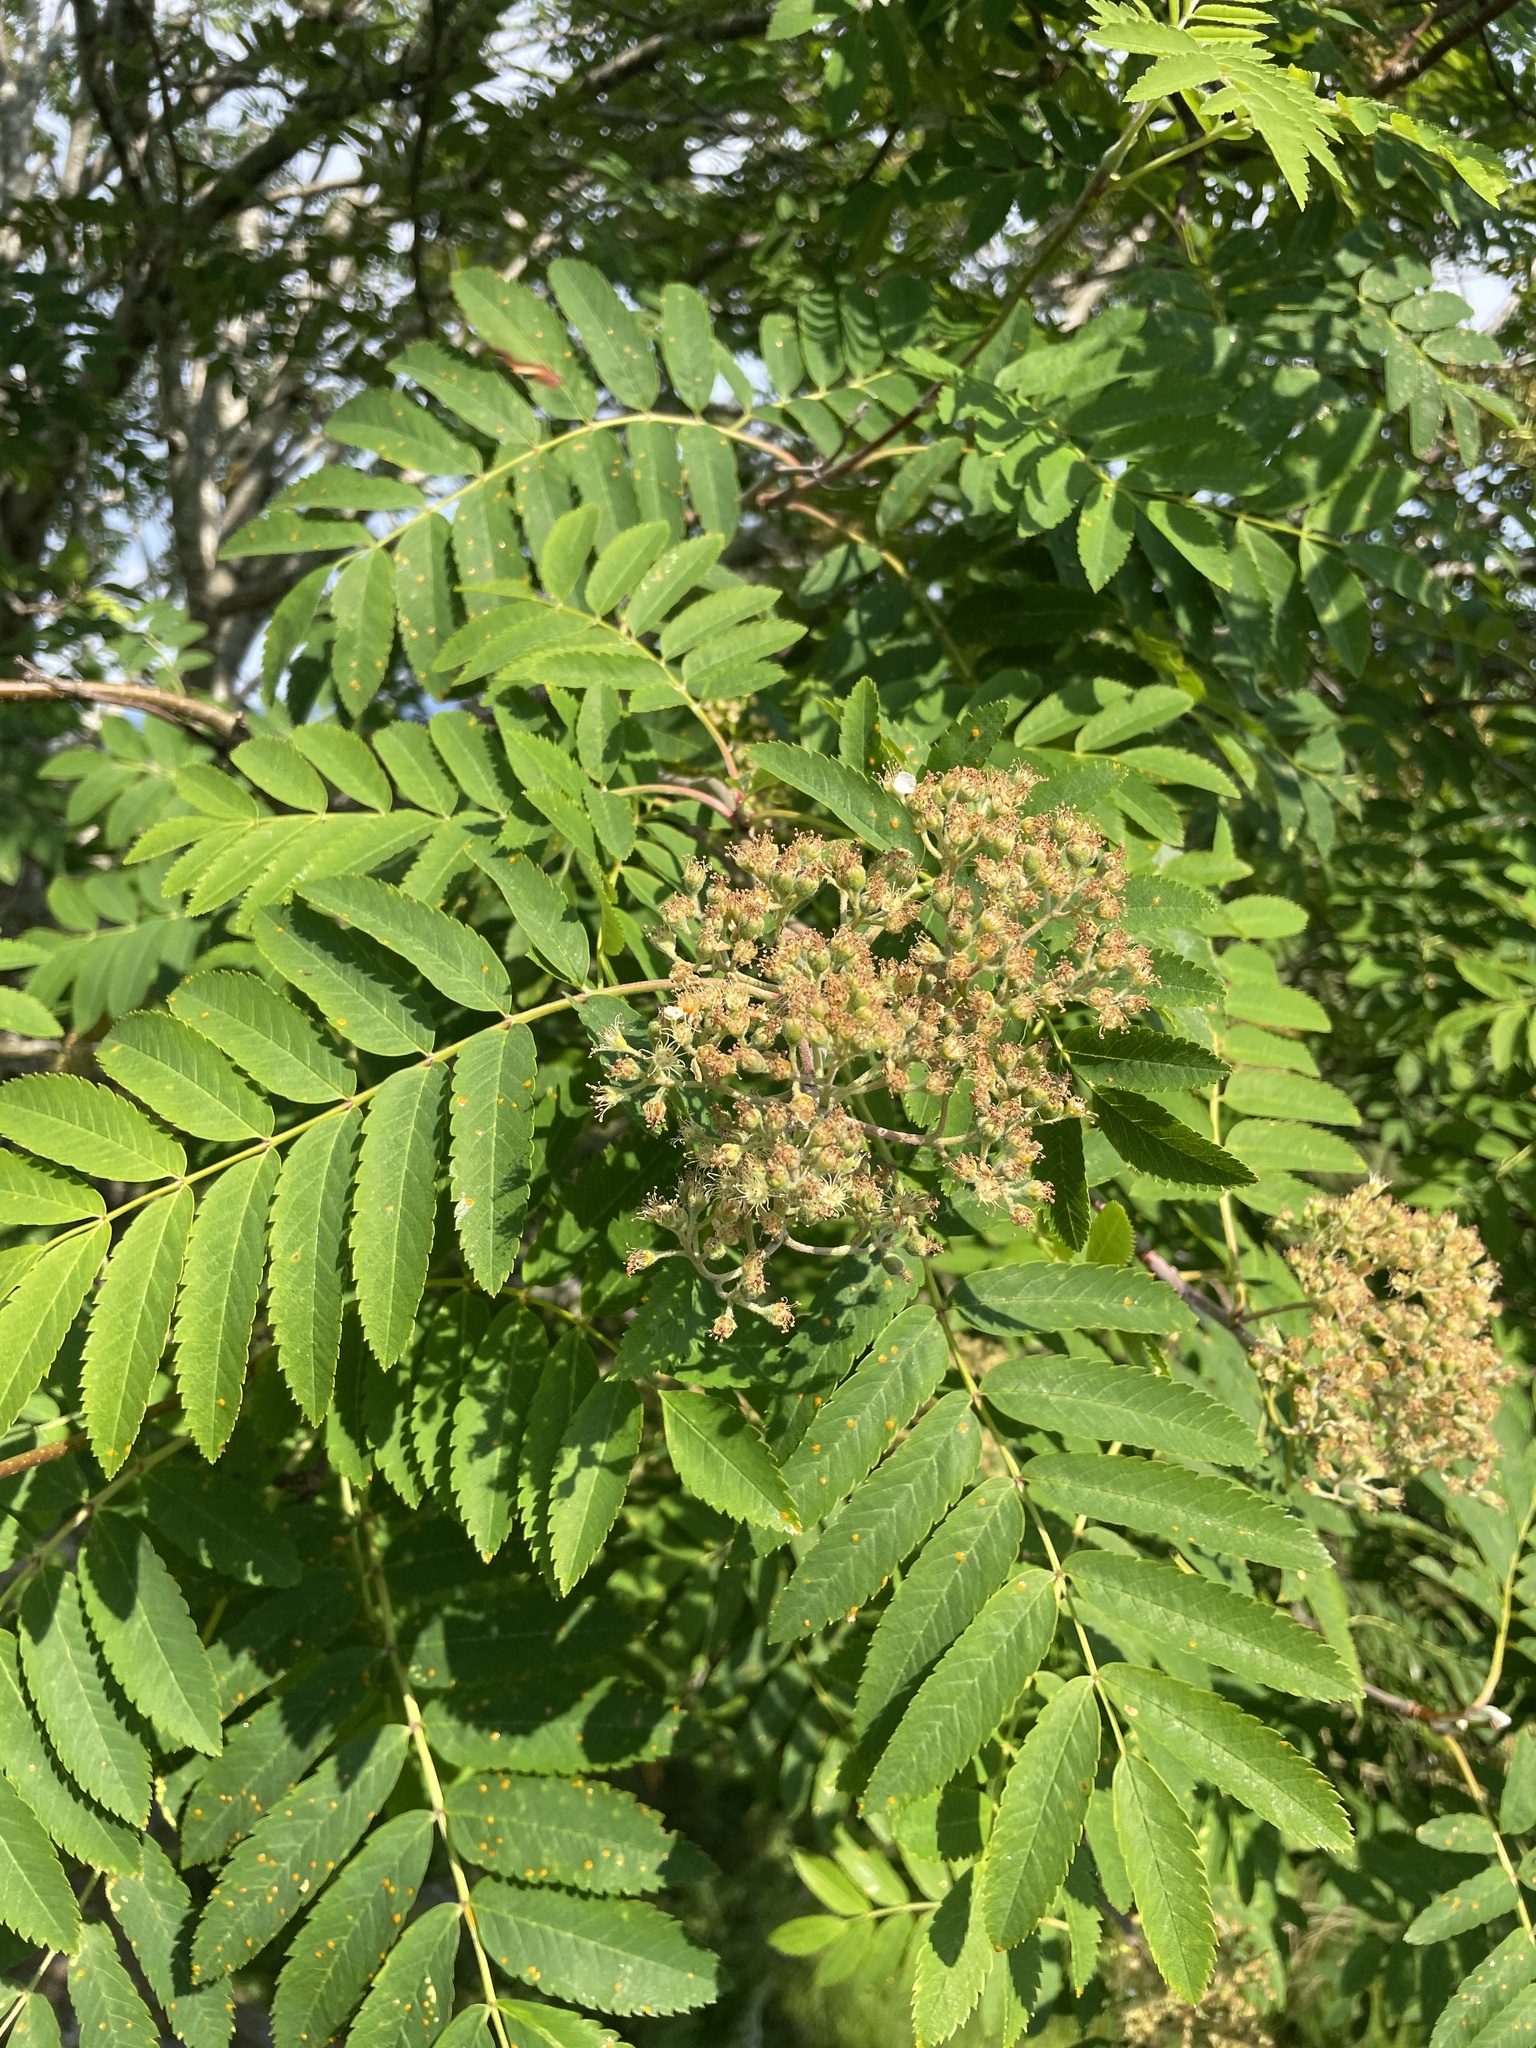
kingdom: Plantae
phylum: Tracheophyta
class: Magnoliopsida
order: Rosales
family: Rosaceae
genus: Sorbus
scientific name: Sorbus aucuparia
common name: Rowan
